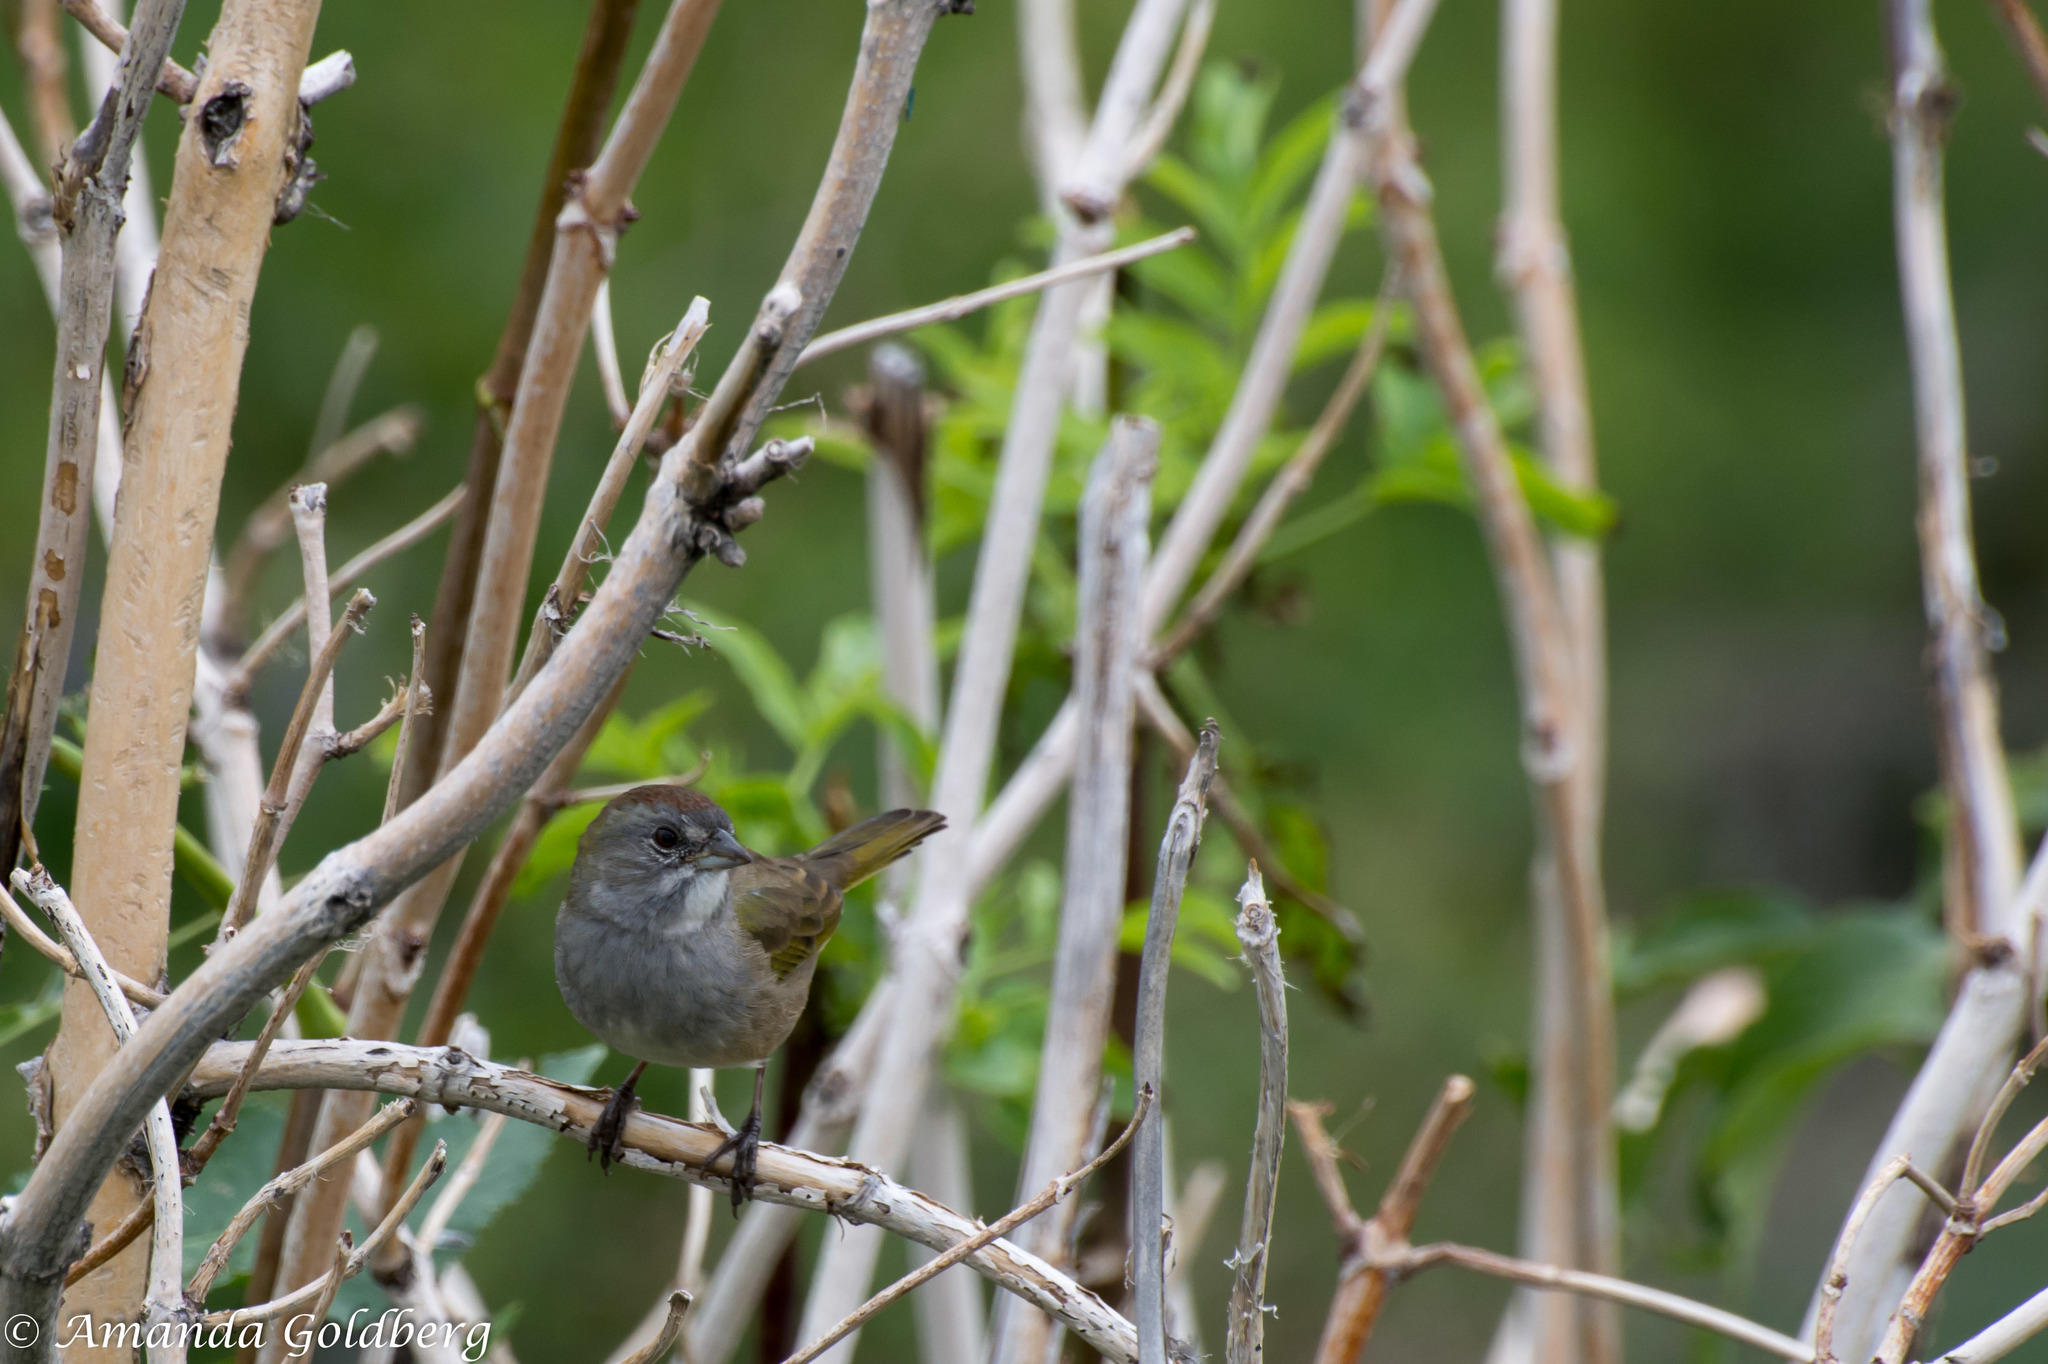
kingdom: Animalia
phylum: Chordata
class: Aves
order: Passeriformes
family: Passerellidae
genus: Pipilo
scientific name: Pipilo chlorurus
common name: Green-tailed towhee
